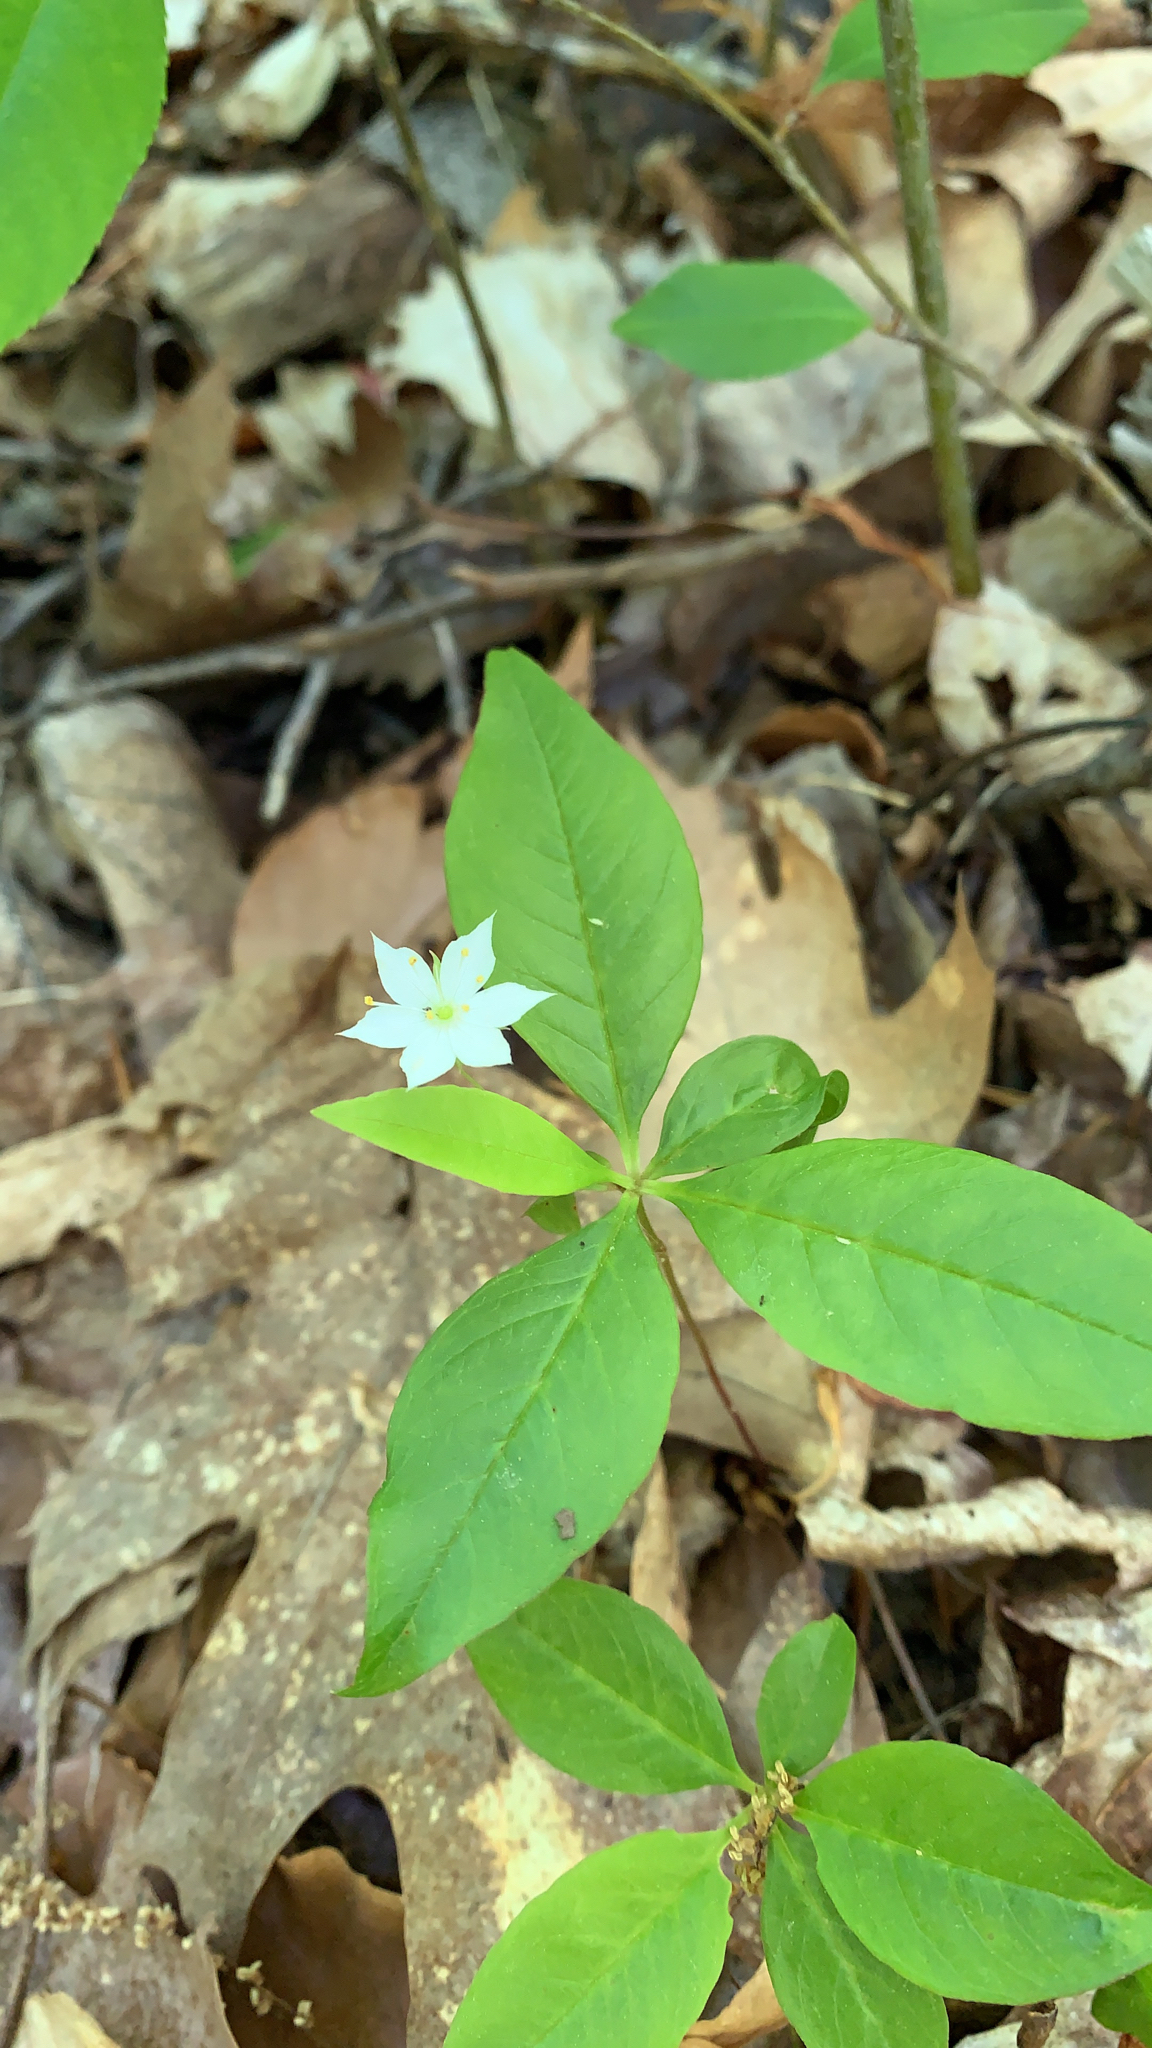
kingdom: Plantae
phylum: Tracheophyta
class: Magnoliopsida
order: Ericales
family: Primulaceae
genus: Lysimachia
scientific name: Lysimachia borealis
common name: American starflower
